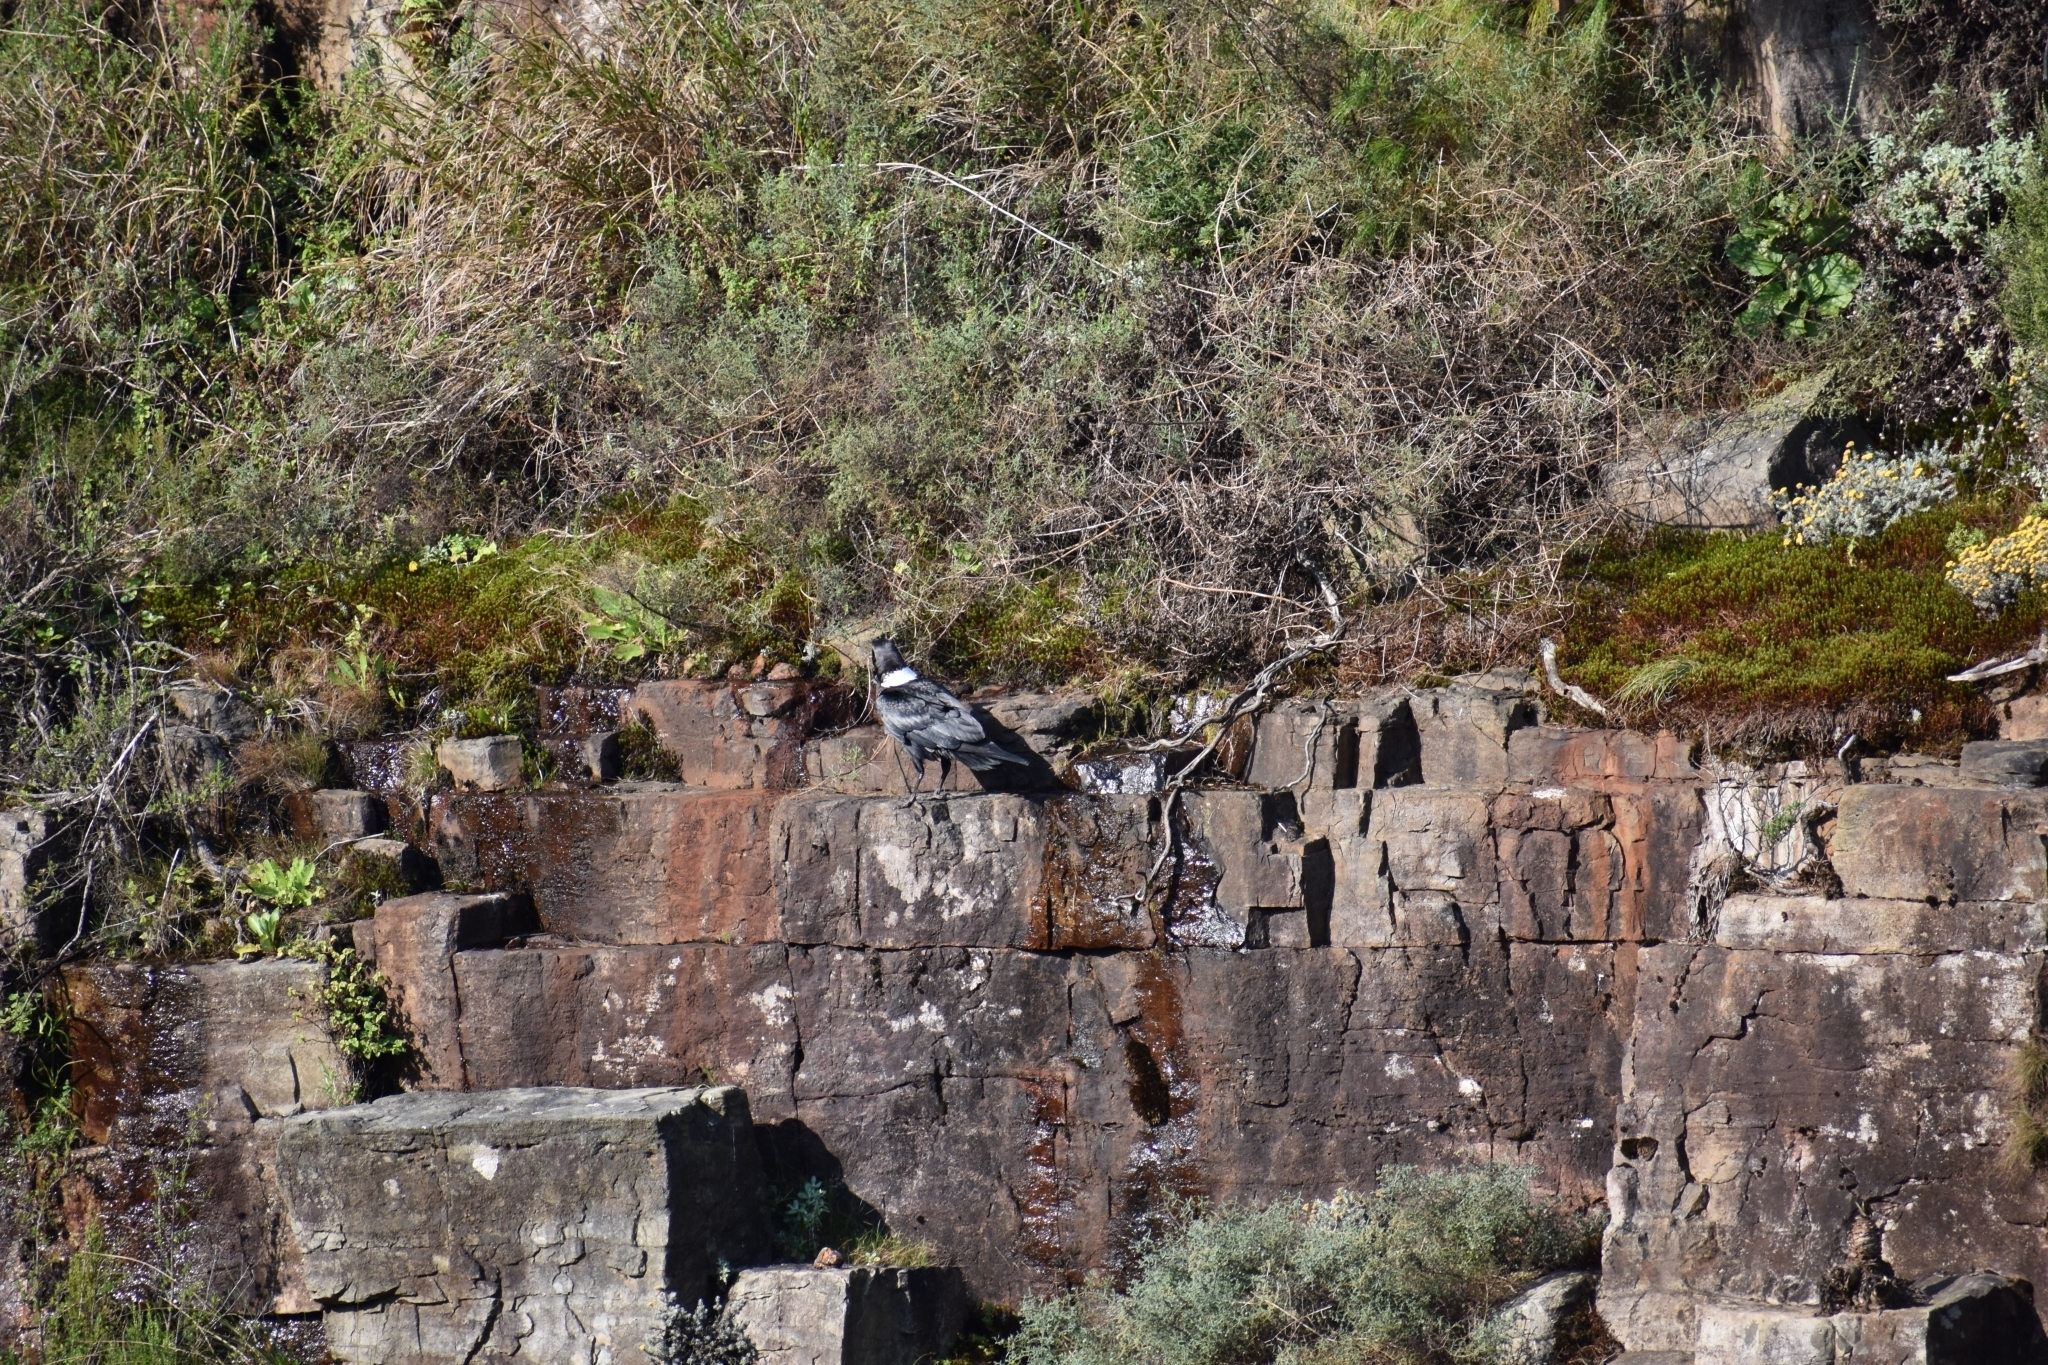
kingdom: Animalia
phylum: Chordata
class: Aves
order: Passeriformes
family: Corvidae
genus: Corvus
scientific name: Corvus albicollis
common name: White-necked raven
